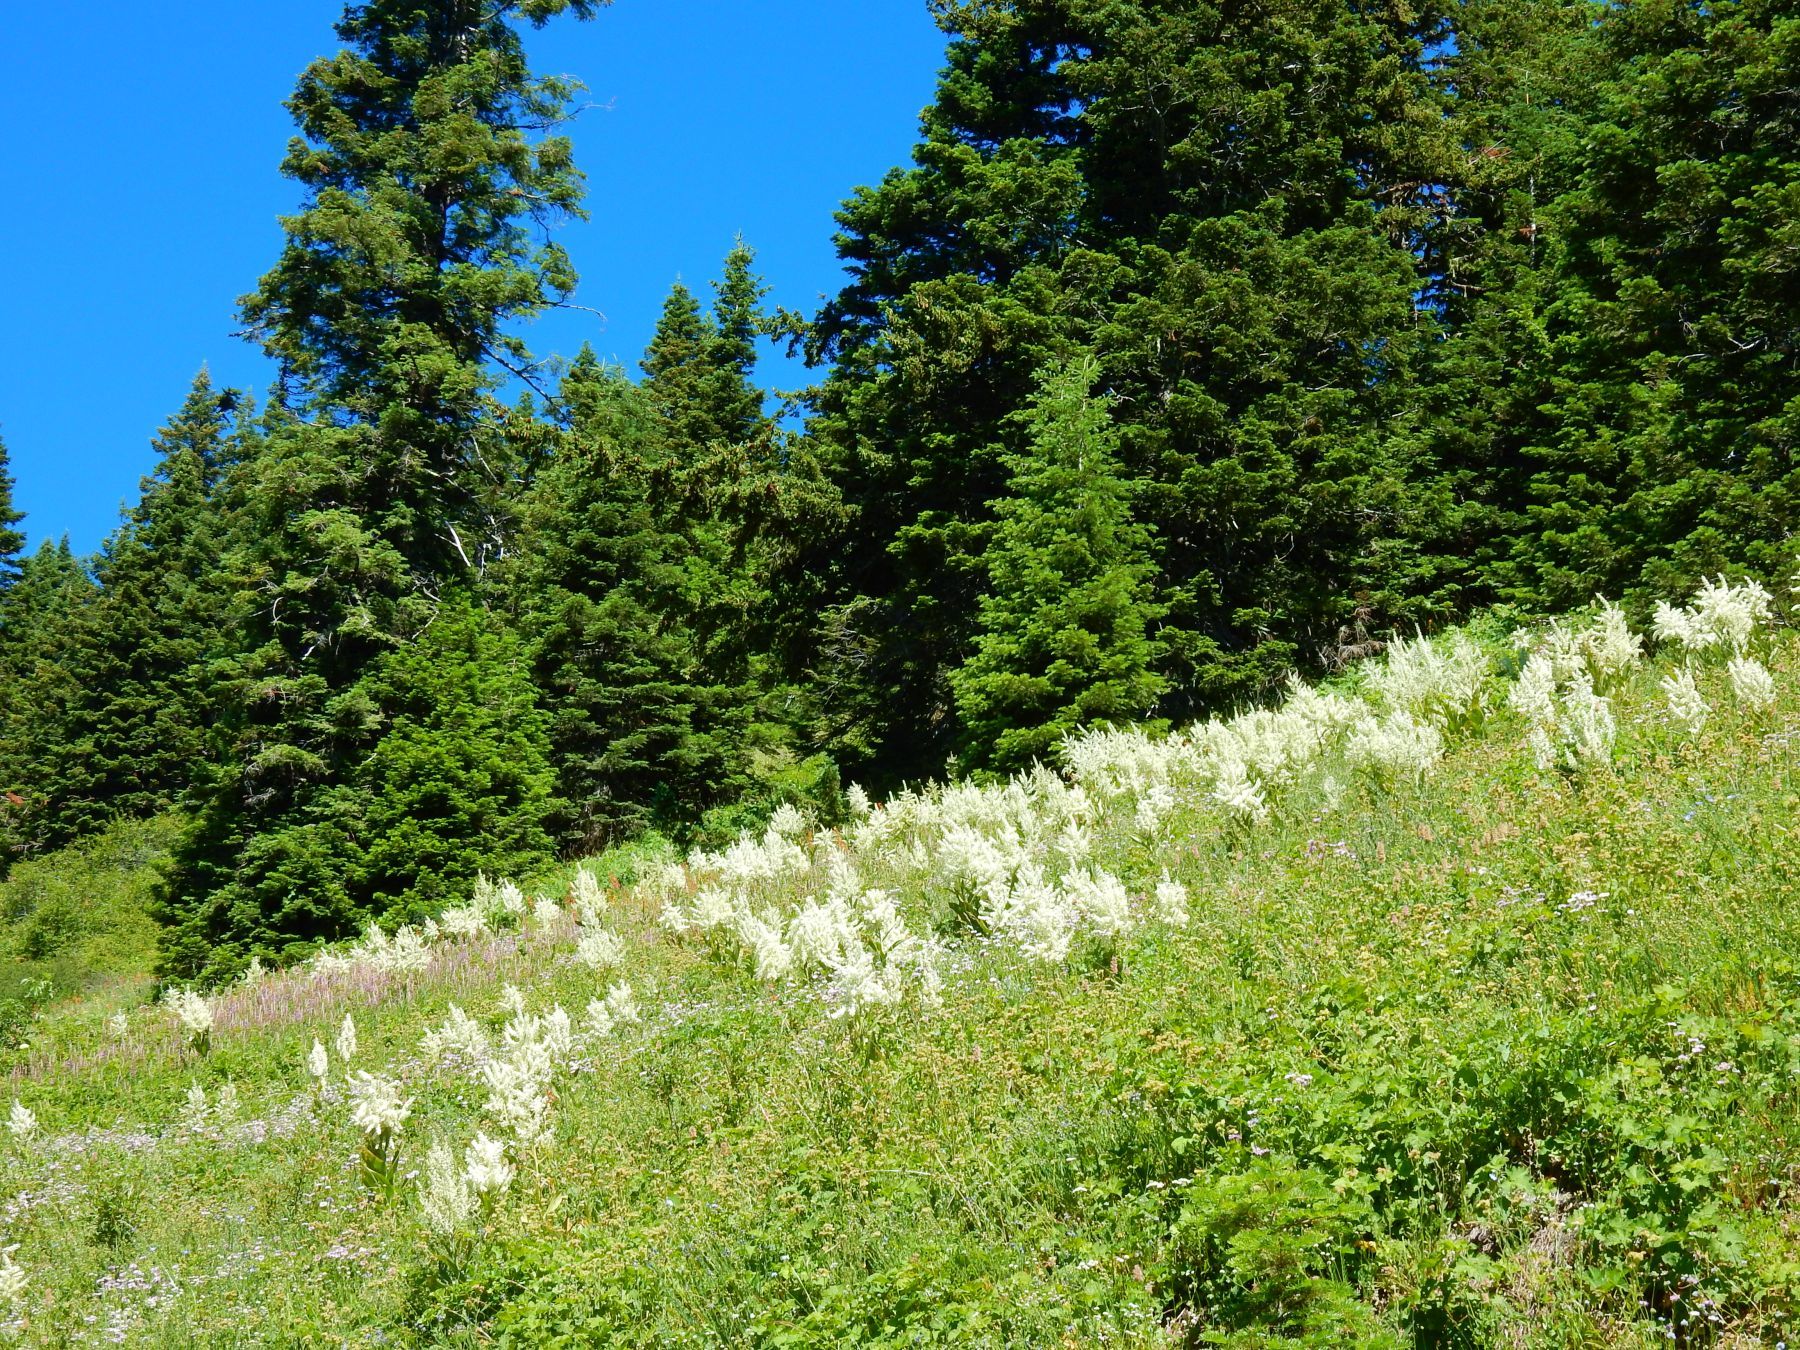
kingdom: Plantae
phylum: Tracheophyta
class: Liliopsida
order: Liliales
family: Melanthiaceae
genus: Veratrum
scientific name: Veratrum insolitum
